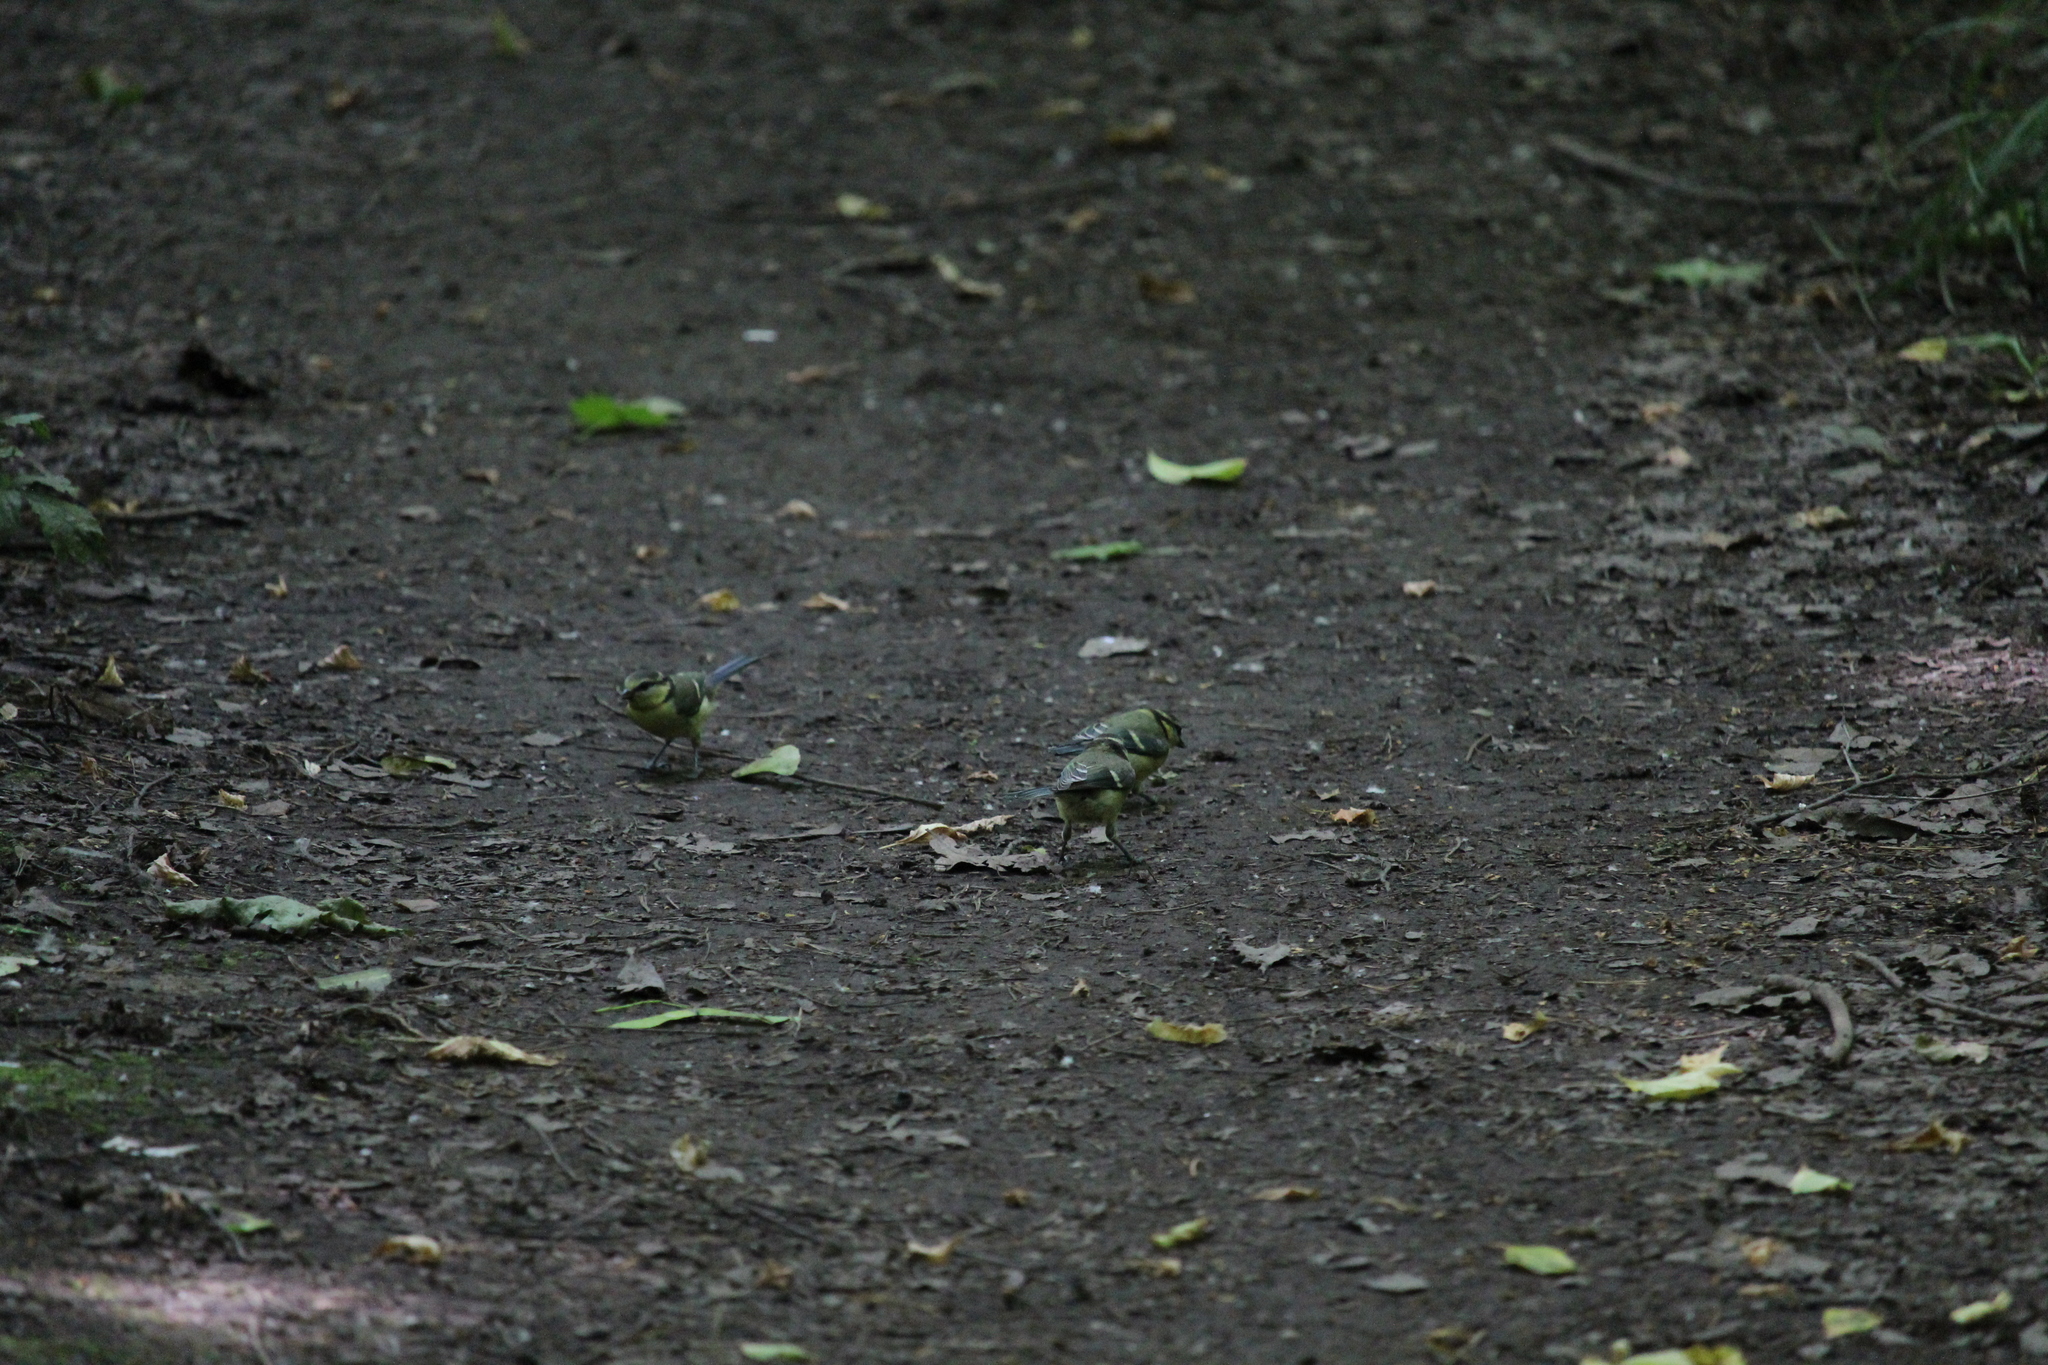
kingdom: Animalia
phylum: Chordata
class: Aves
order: Passeriformes
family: Paridae
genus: Cyanistes
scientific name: Cyanistes caeruleus
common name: Eurasian blue tit
